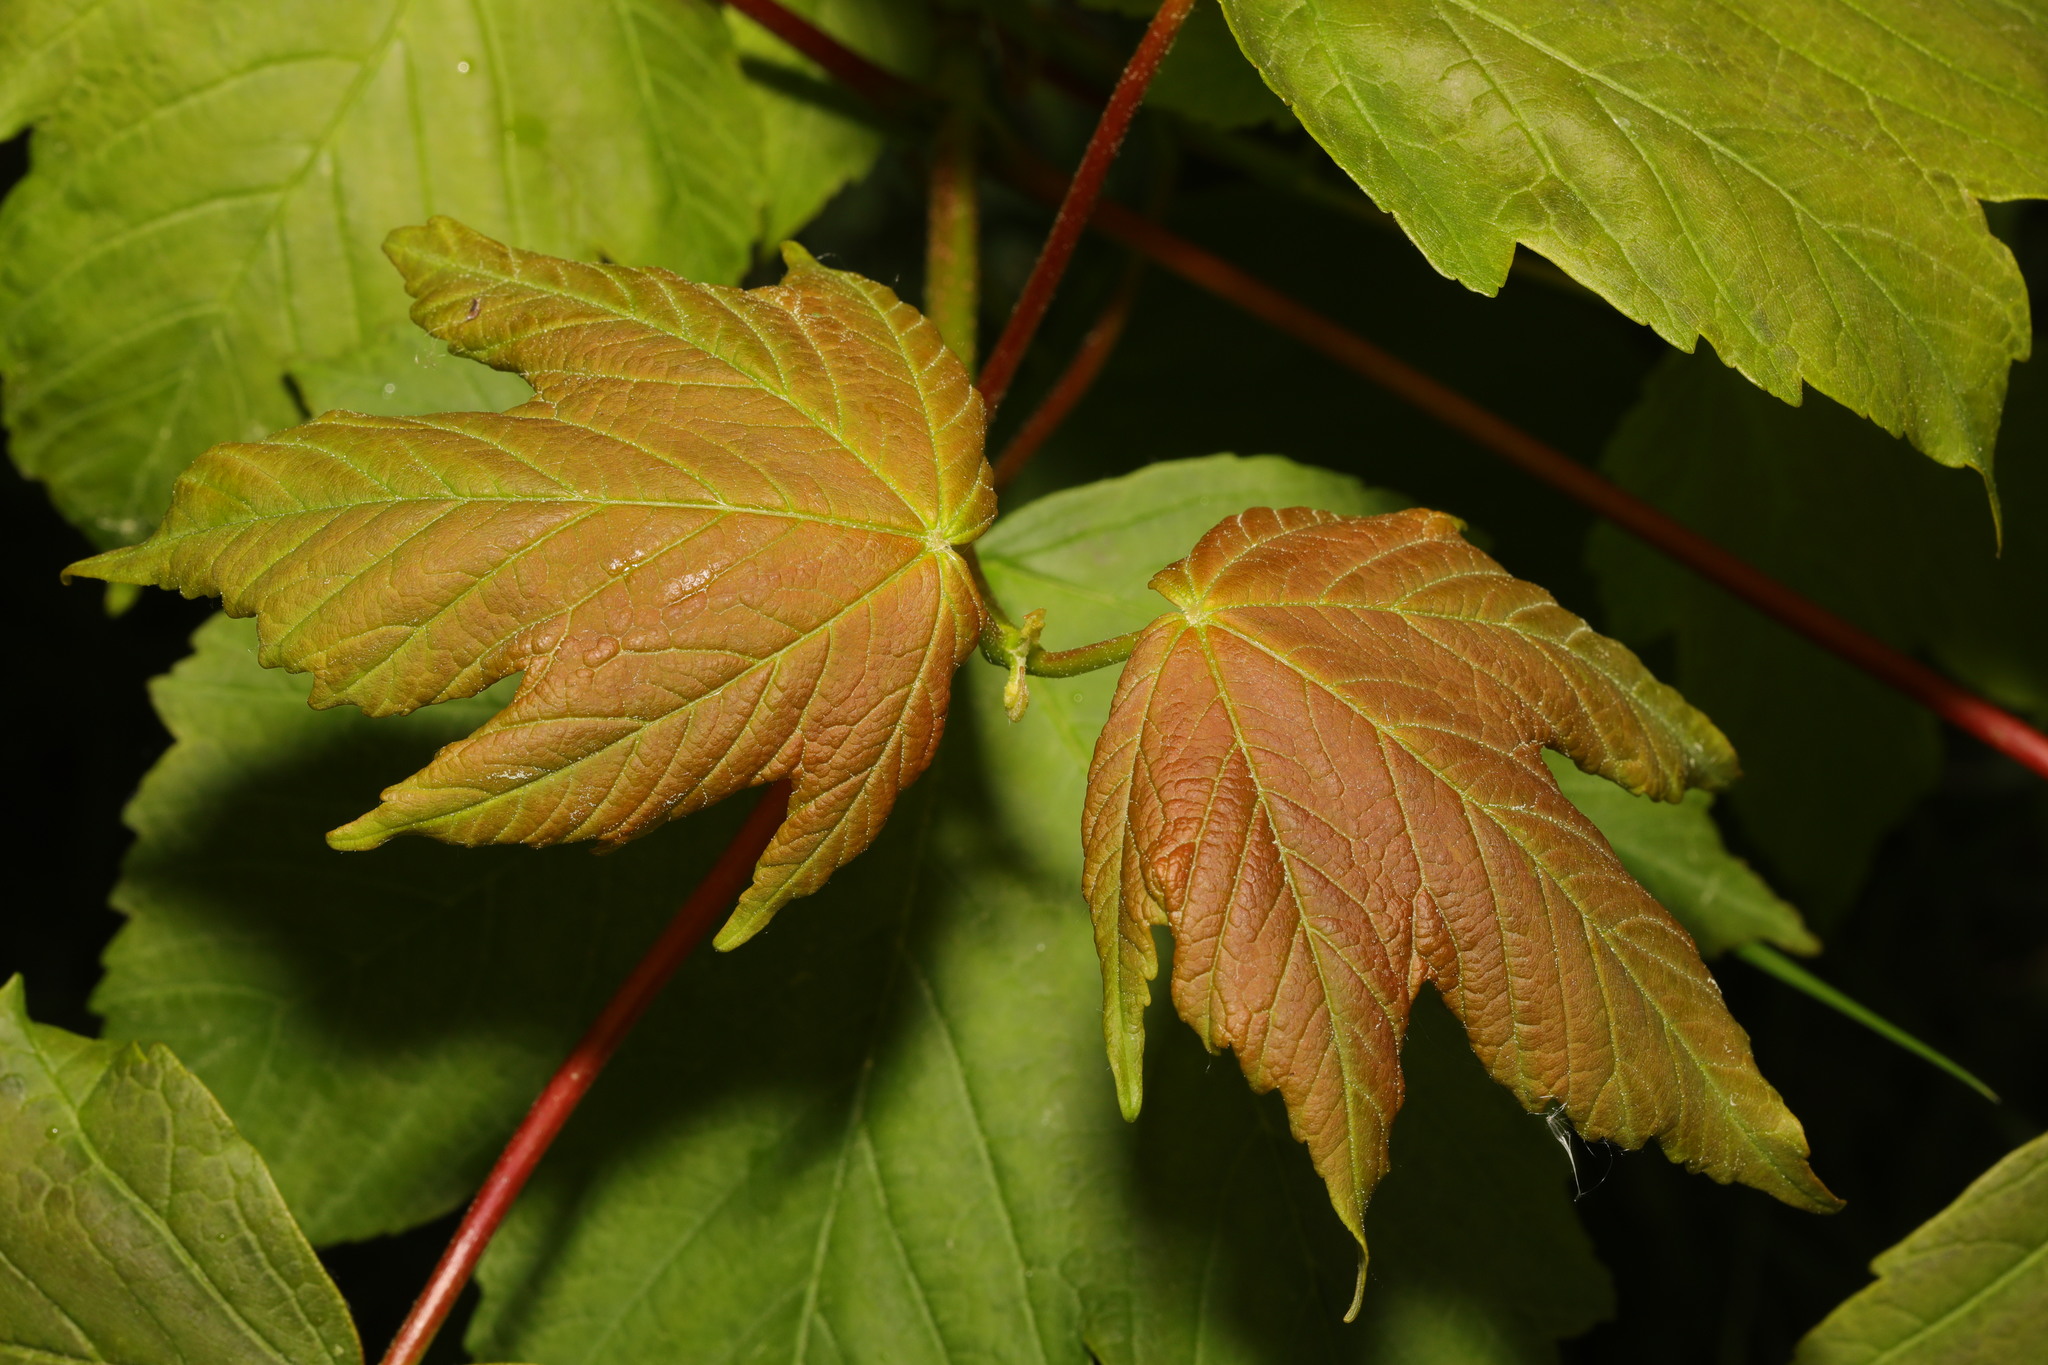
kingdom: Plantae
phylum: Tracheophyta
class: Magnoliopsida
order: Sapindales
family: Sapindaceae
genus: Acer
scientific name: Acer pseudoplatanus
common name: Sycamore
